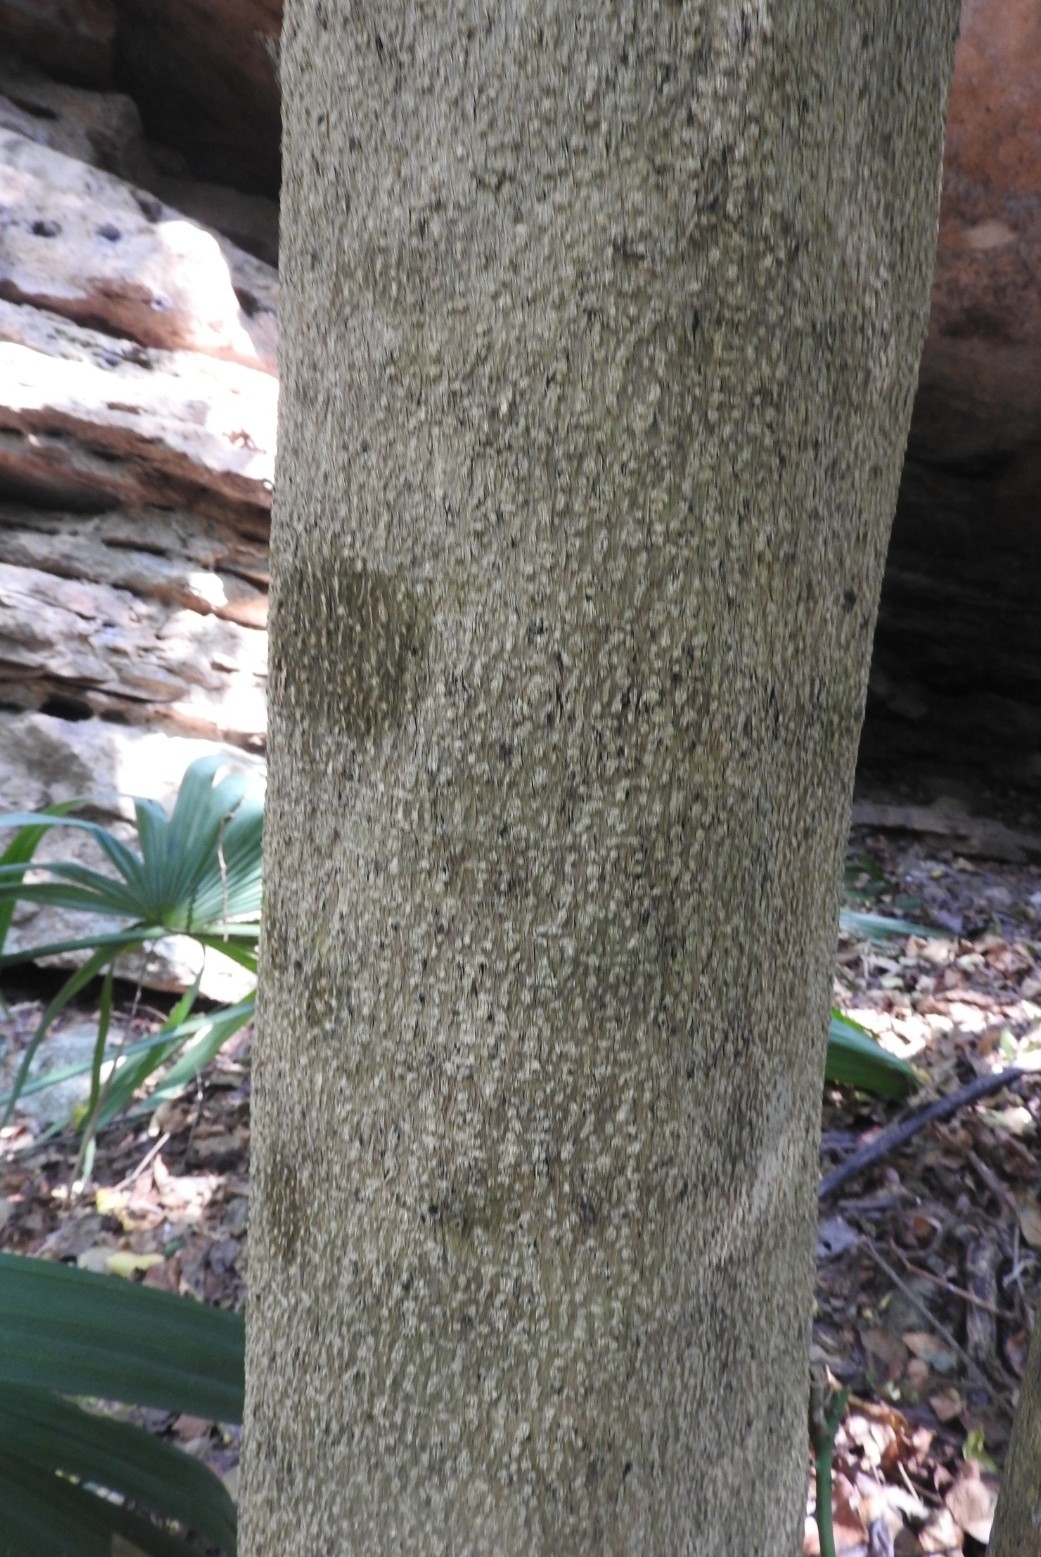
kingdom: Plantae
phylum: Tracheophyta
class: Magnoliopsida
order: Magnoliales
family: Annonaceae
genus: Annona
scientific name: Annona muricata
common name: Soursop
